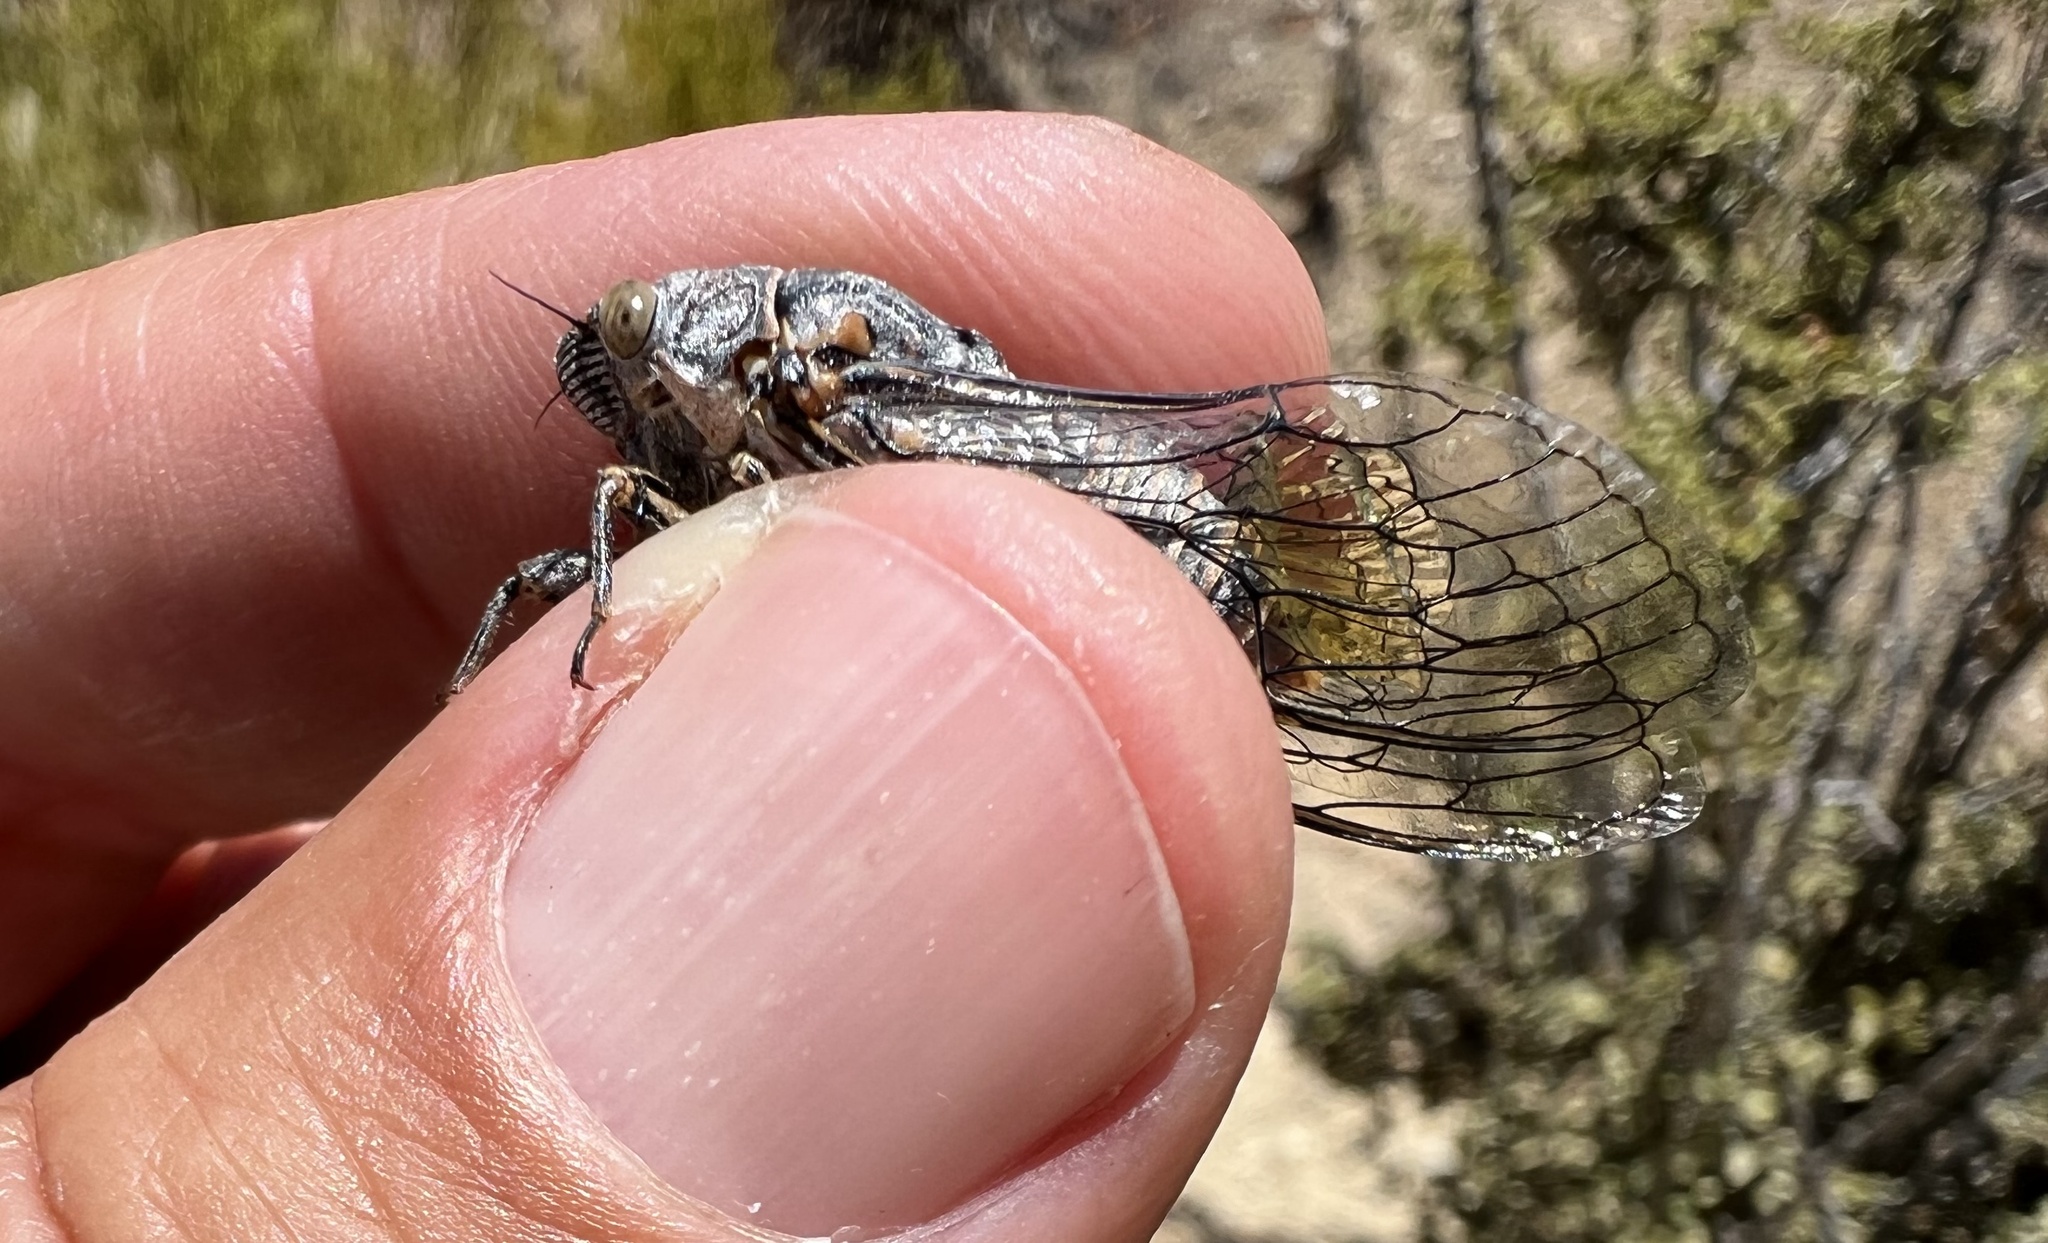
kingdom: Animalia
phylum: Arthropoda
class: Insecta
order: Hemiptera
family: Cicadidae
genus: Clidophleps
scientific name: Clidophleps tenuis
